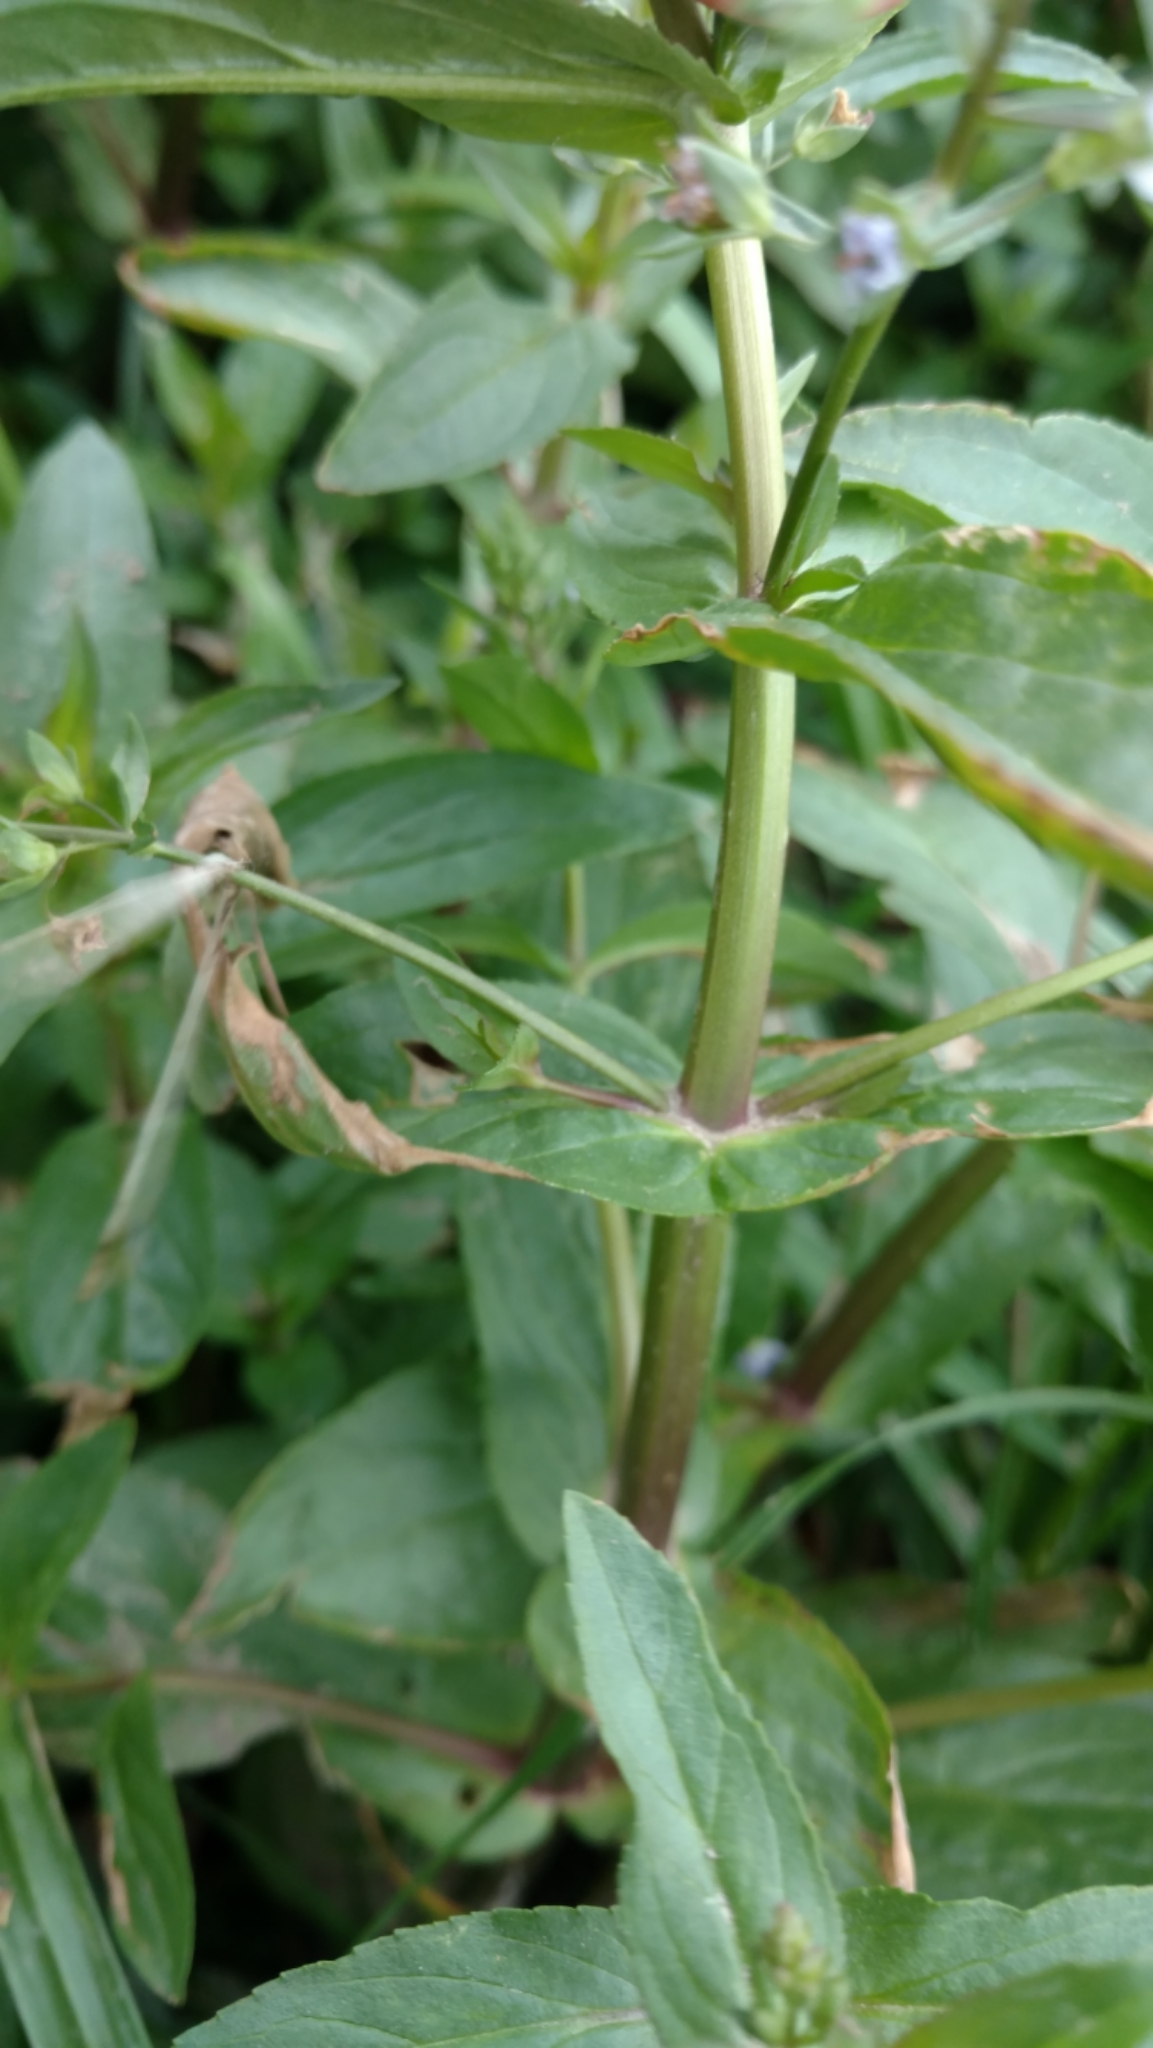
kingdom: Plantae
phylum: Tracheophyta
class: Magnoliopsida
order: Lamiales
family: Plantaginaceae
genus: Veronica
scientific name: Veronica anagallis-aquatica
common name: Water speedwell
